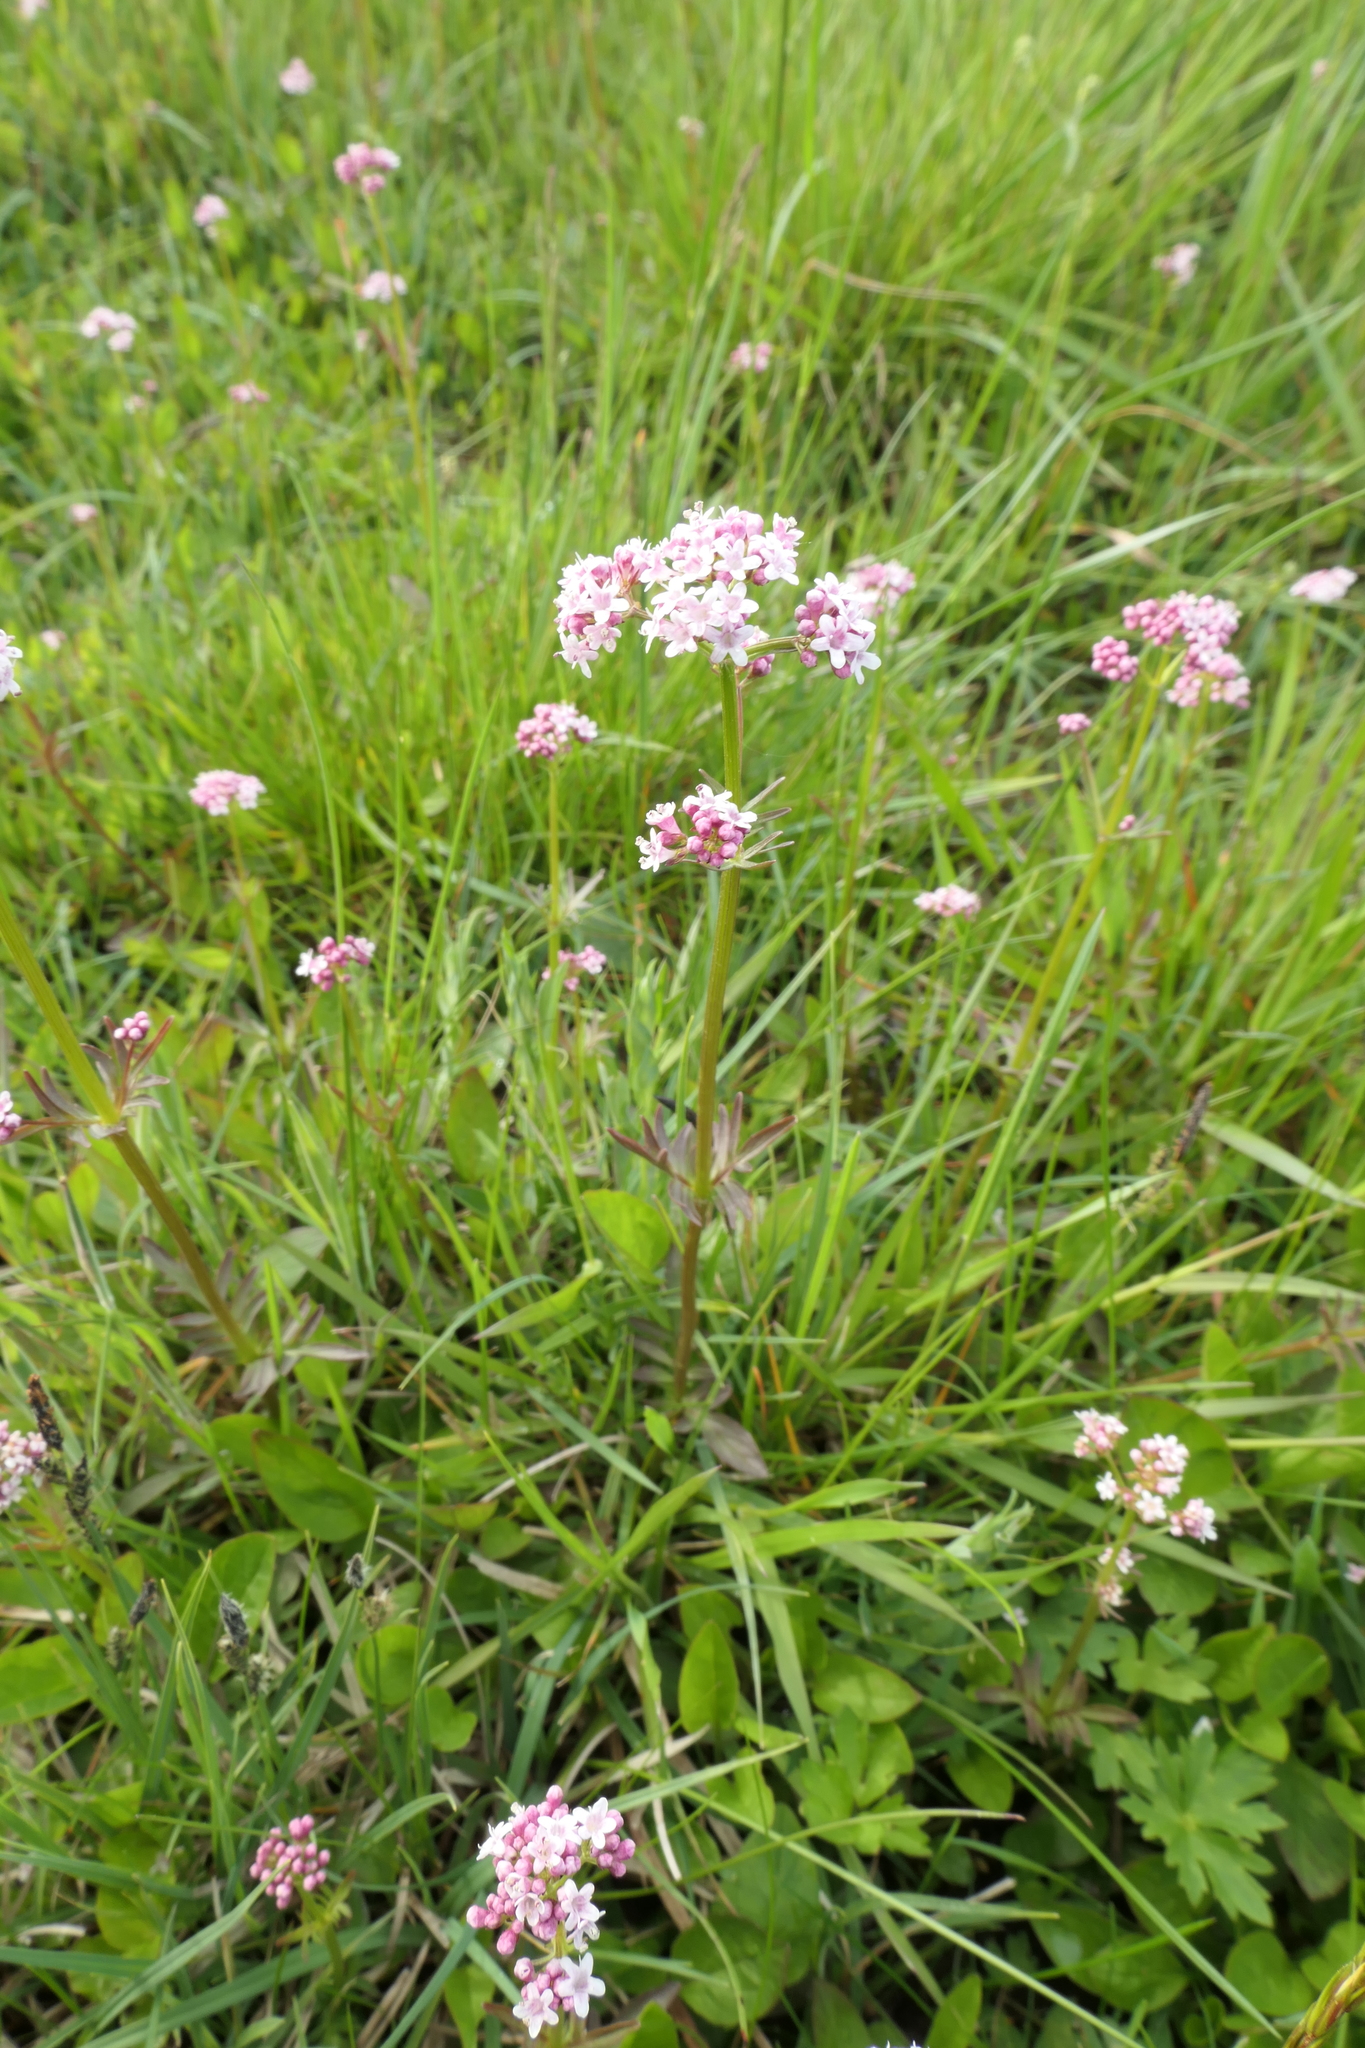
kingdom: Plantae
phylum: Tracheophyta
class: Magnoliopsida
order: Dipsacales
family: Caprifoliaceae
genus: Valeriana
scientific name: Valeriana dioica
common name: Marsh valerian
